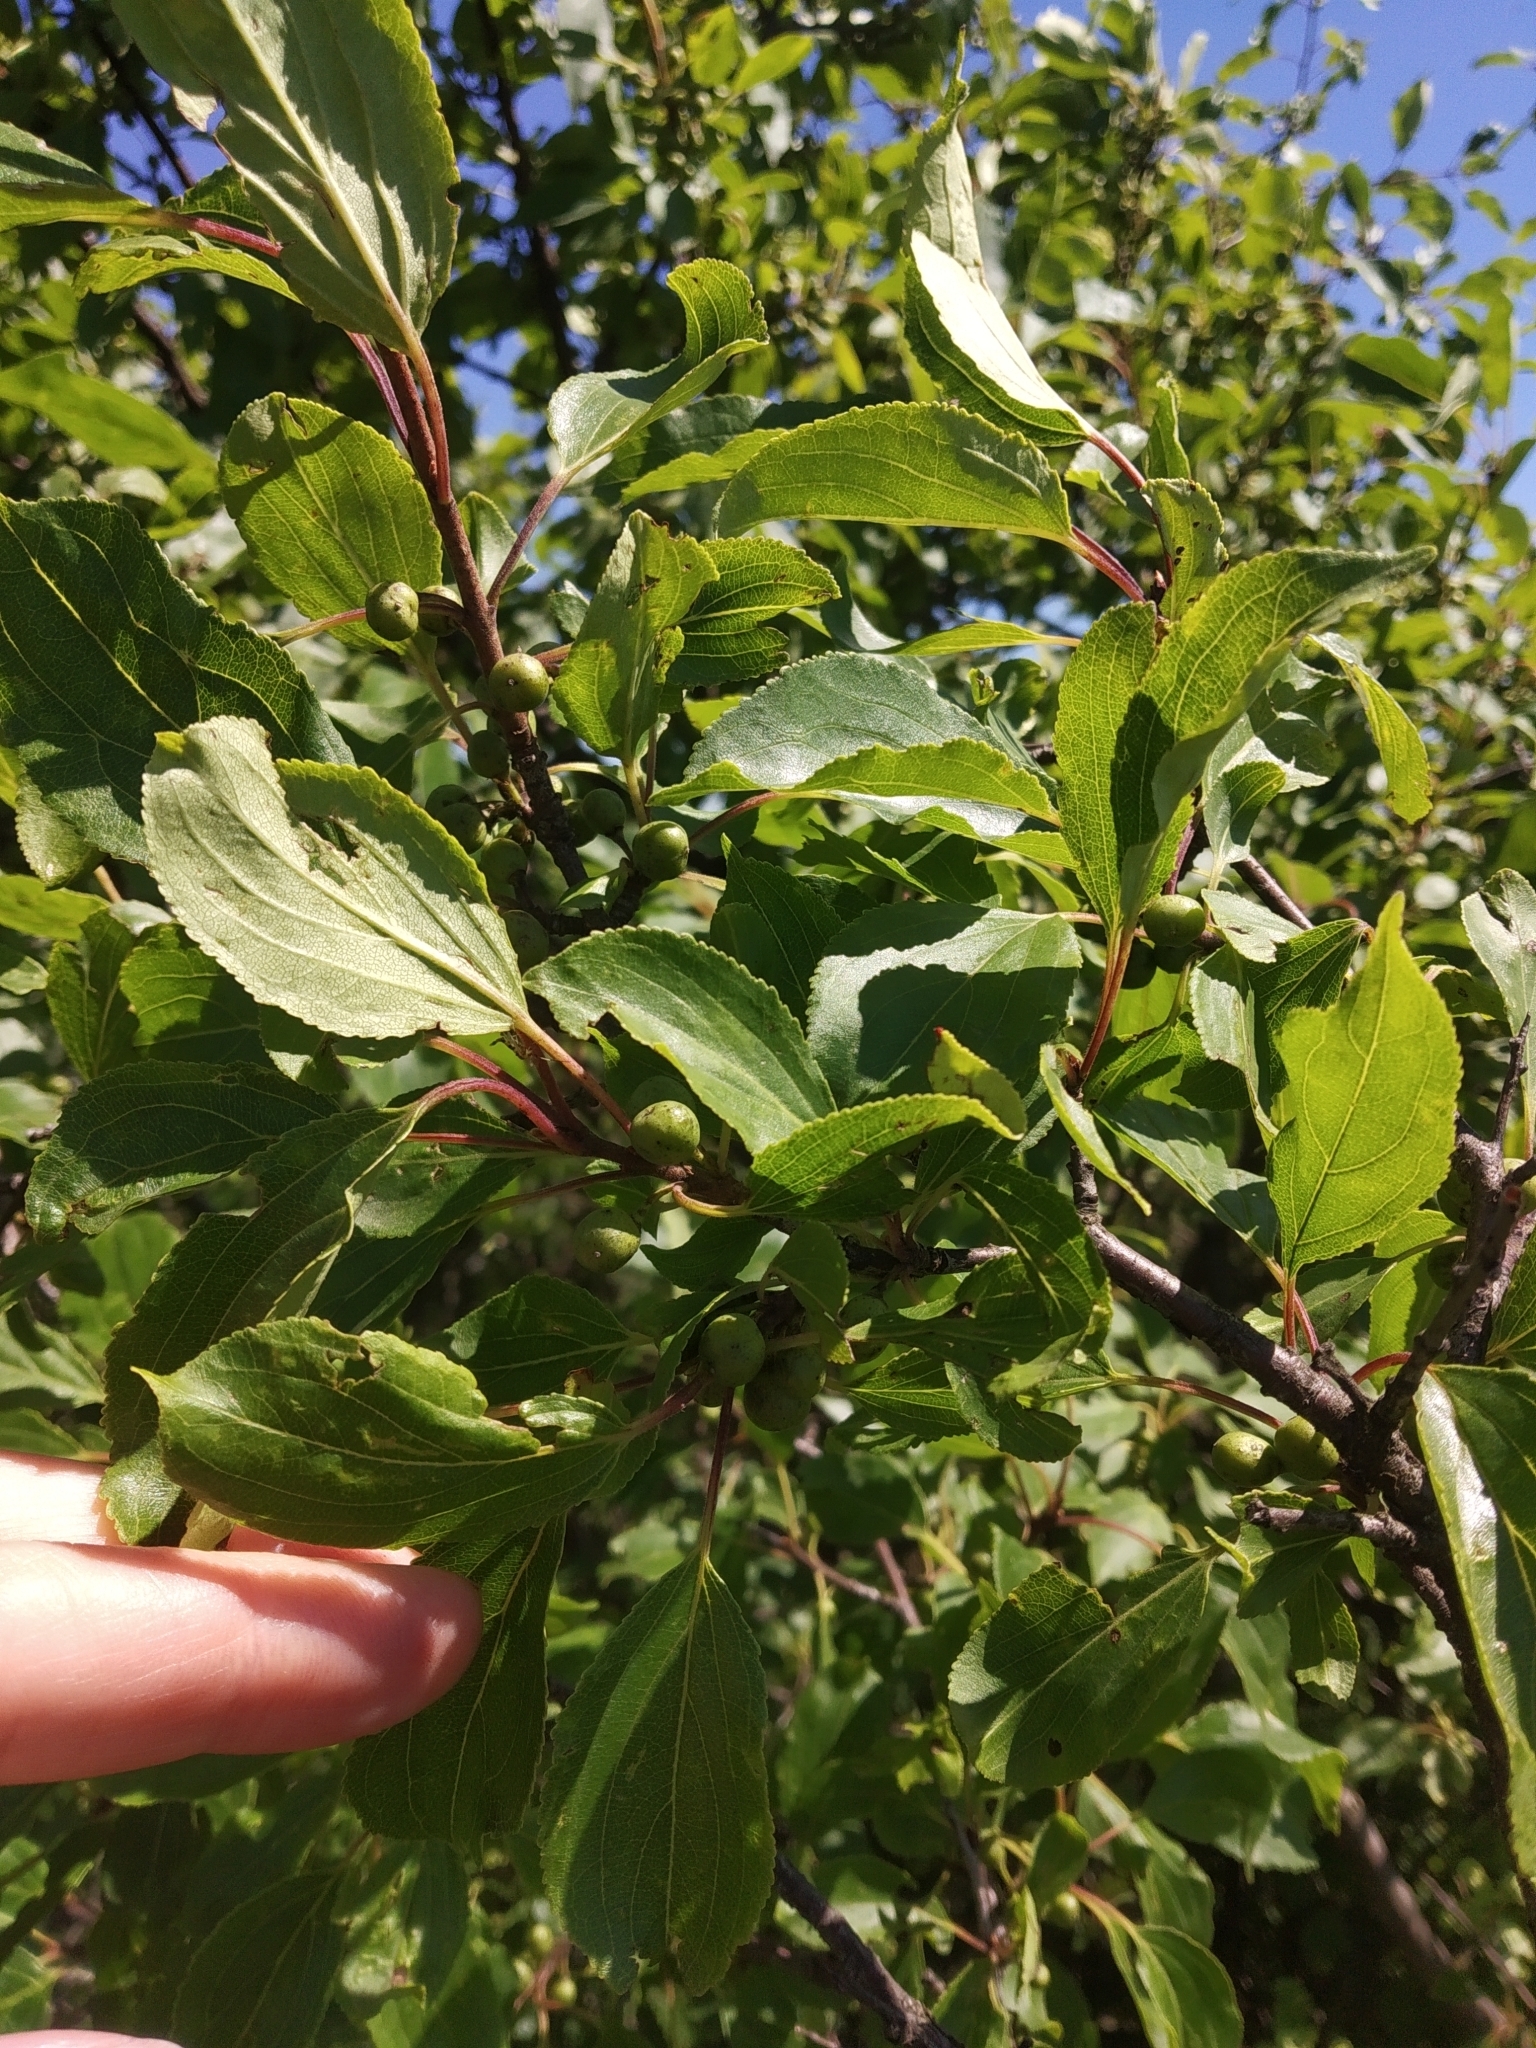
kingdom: Plantae
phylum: Tracheophyta
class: Magnoliopsida
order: Rosales
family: Rhamnaceae
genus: Rhamnus
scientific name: Rhamnus cathartica
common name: Common buckthorn
